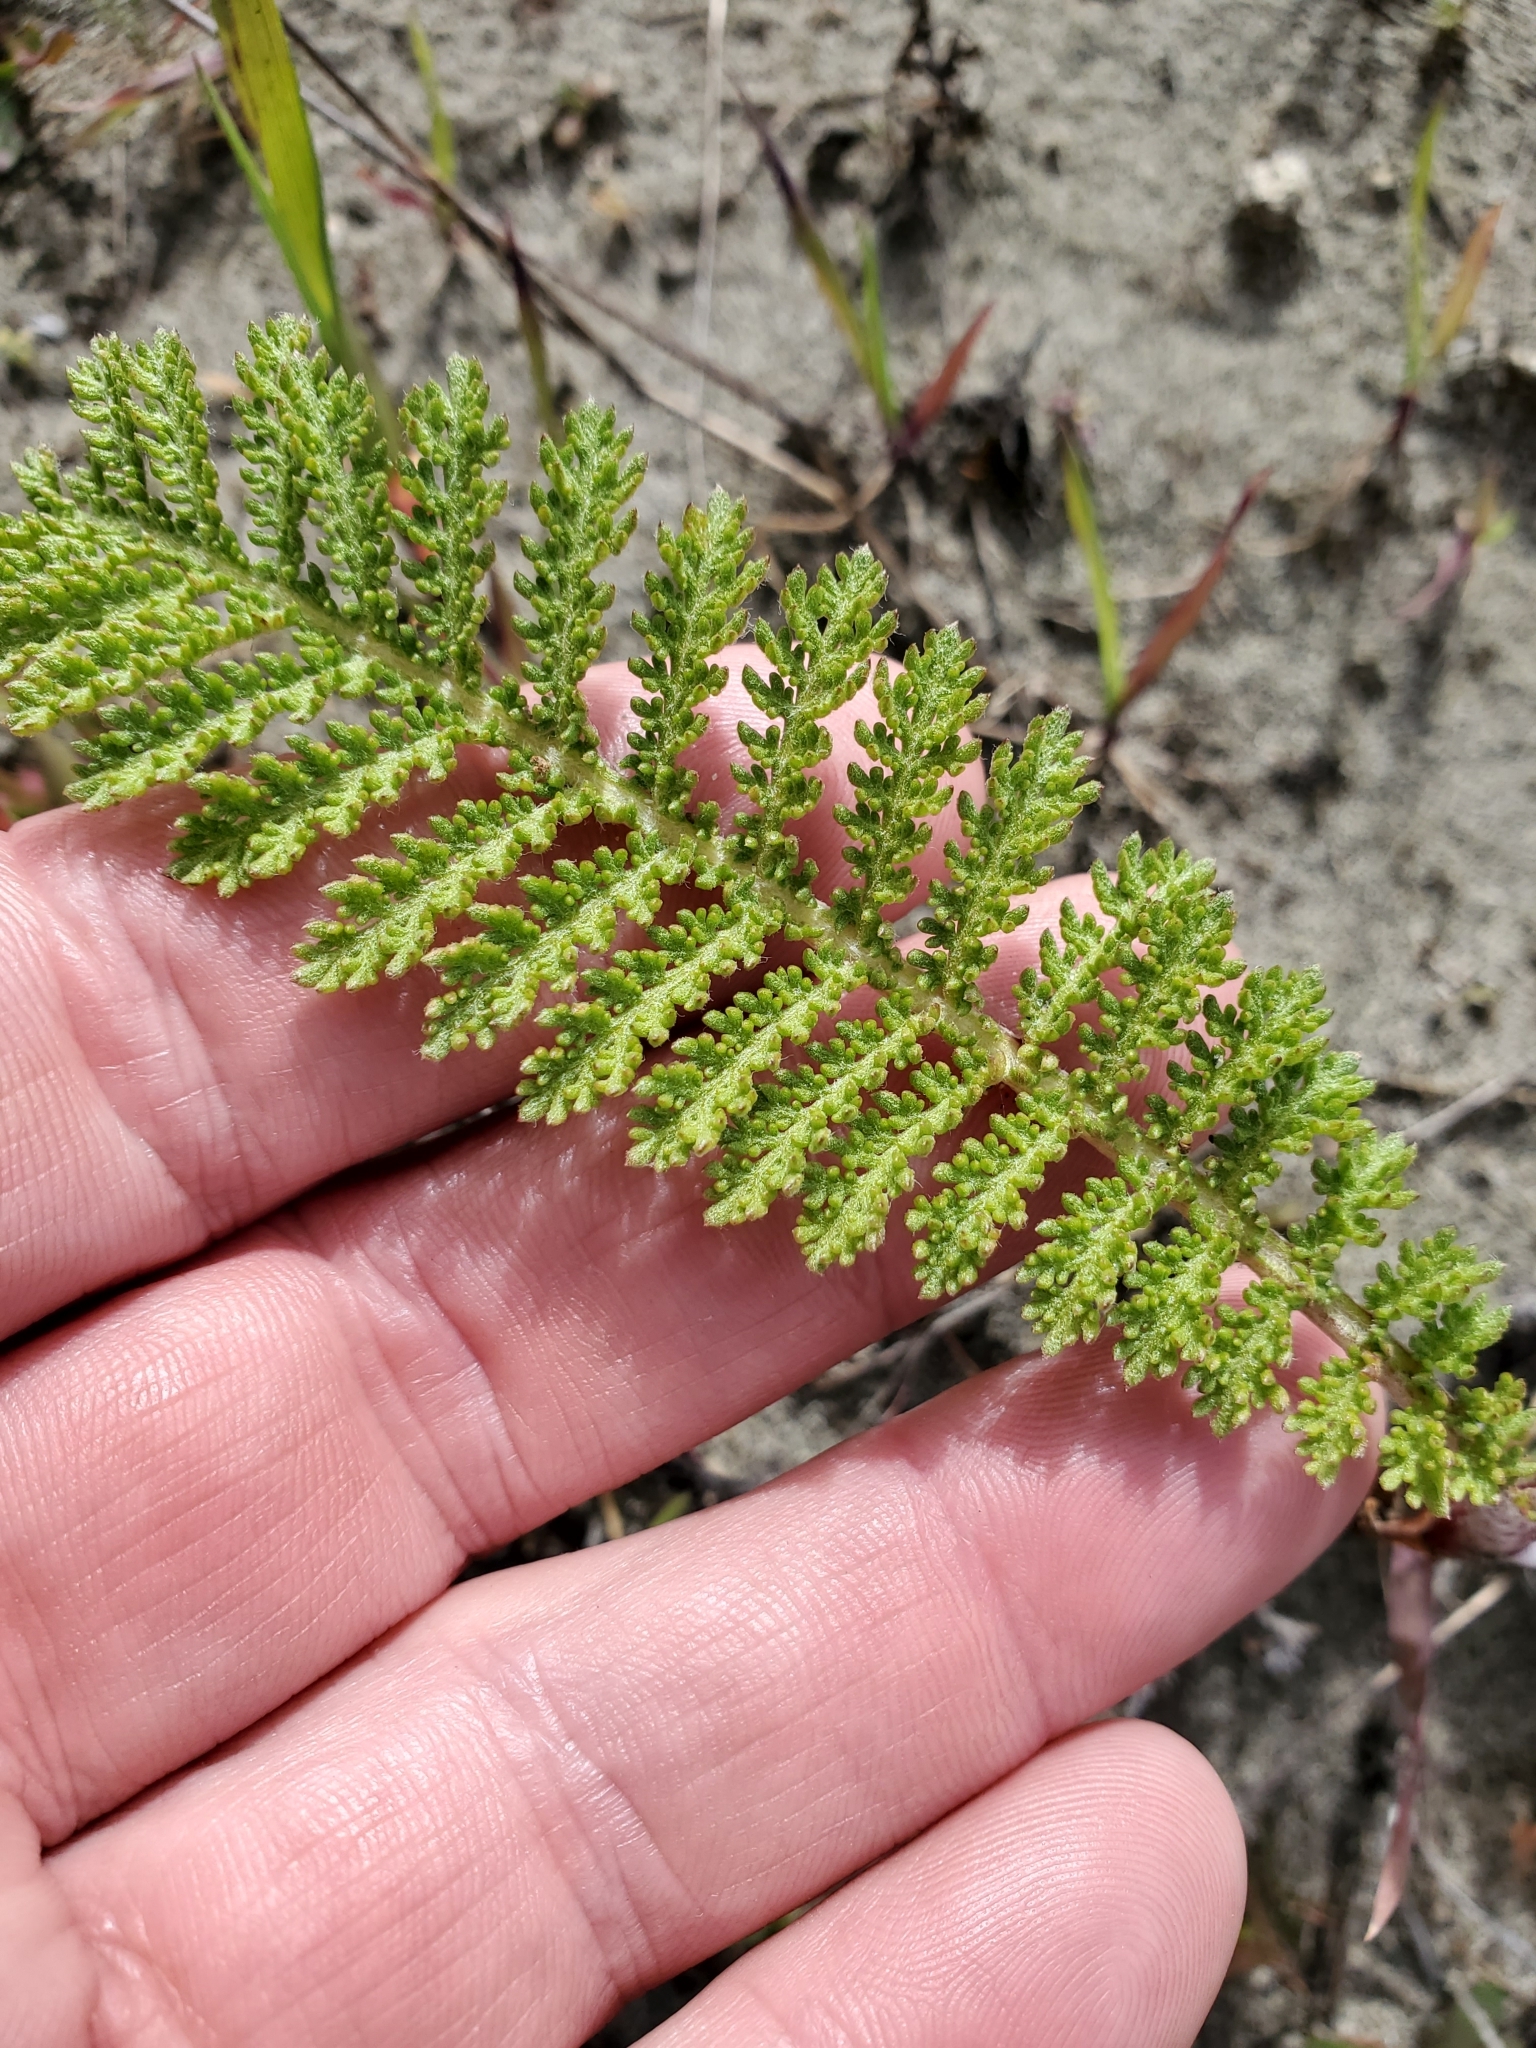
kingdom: Plantae
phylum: Tracheophyta
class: Magnoliopsida
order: Asterales
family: Asteraceae
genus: Tanacetum
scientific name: Tanacetum bipinnatum
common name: Dwarf tansy
